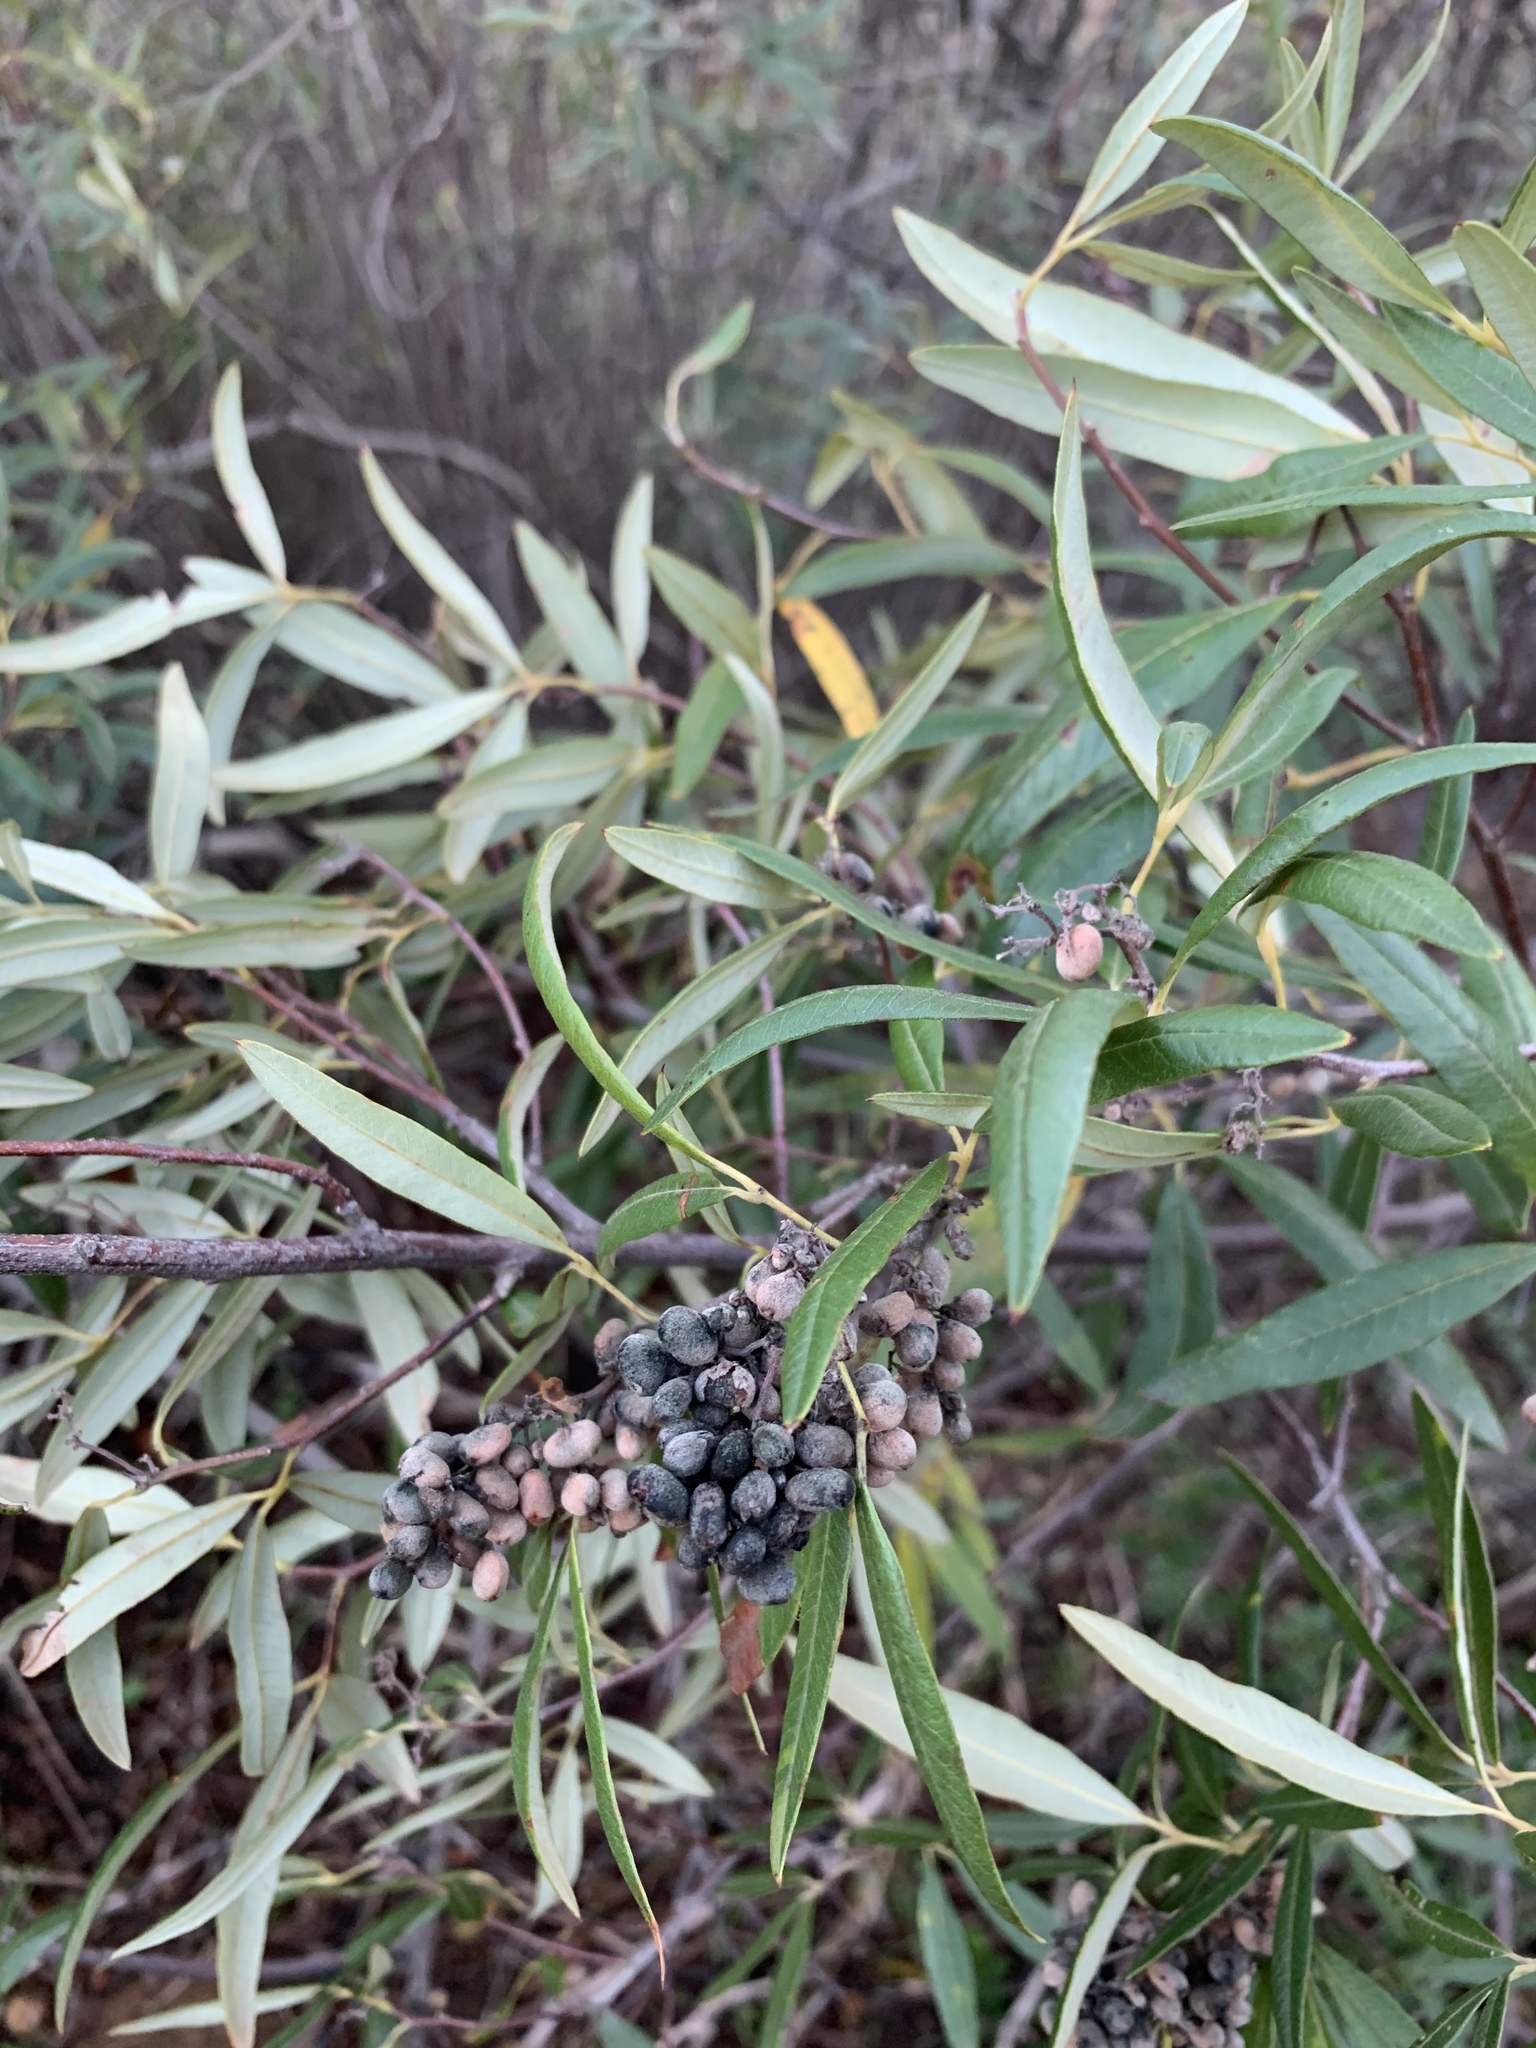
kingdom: Plantae
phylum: Tracheophyta
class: Magnoliopsida
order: Sapindales
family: Anacardiaceae
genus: Searsia
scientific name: Searsia angustifolia
